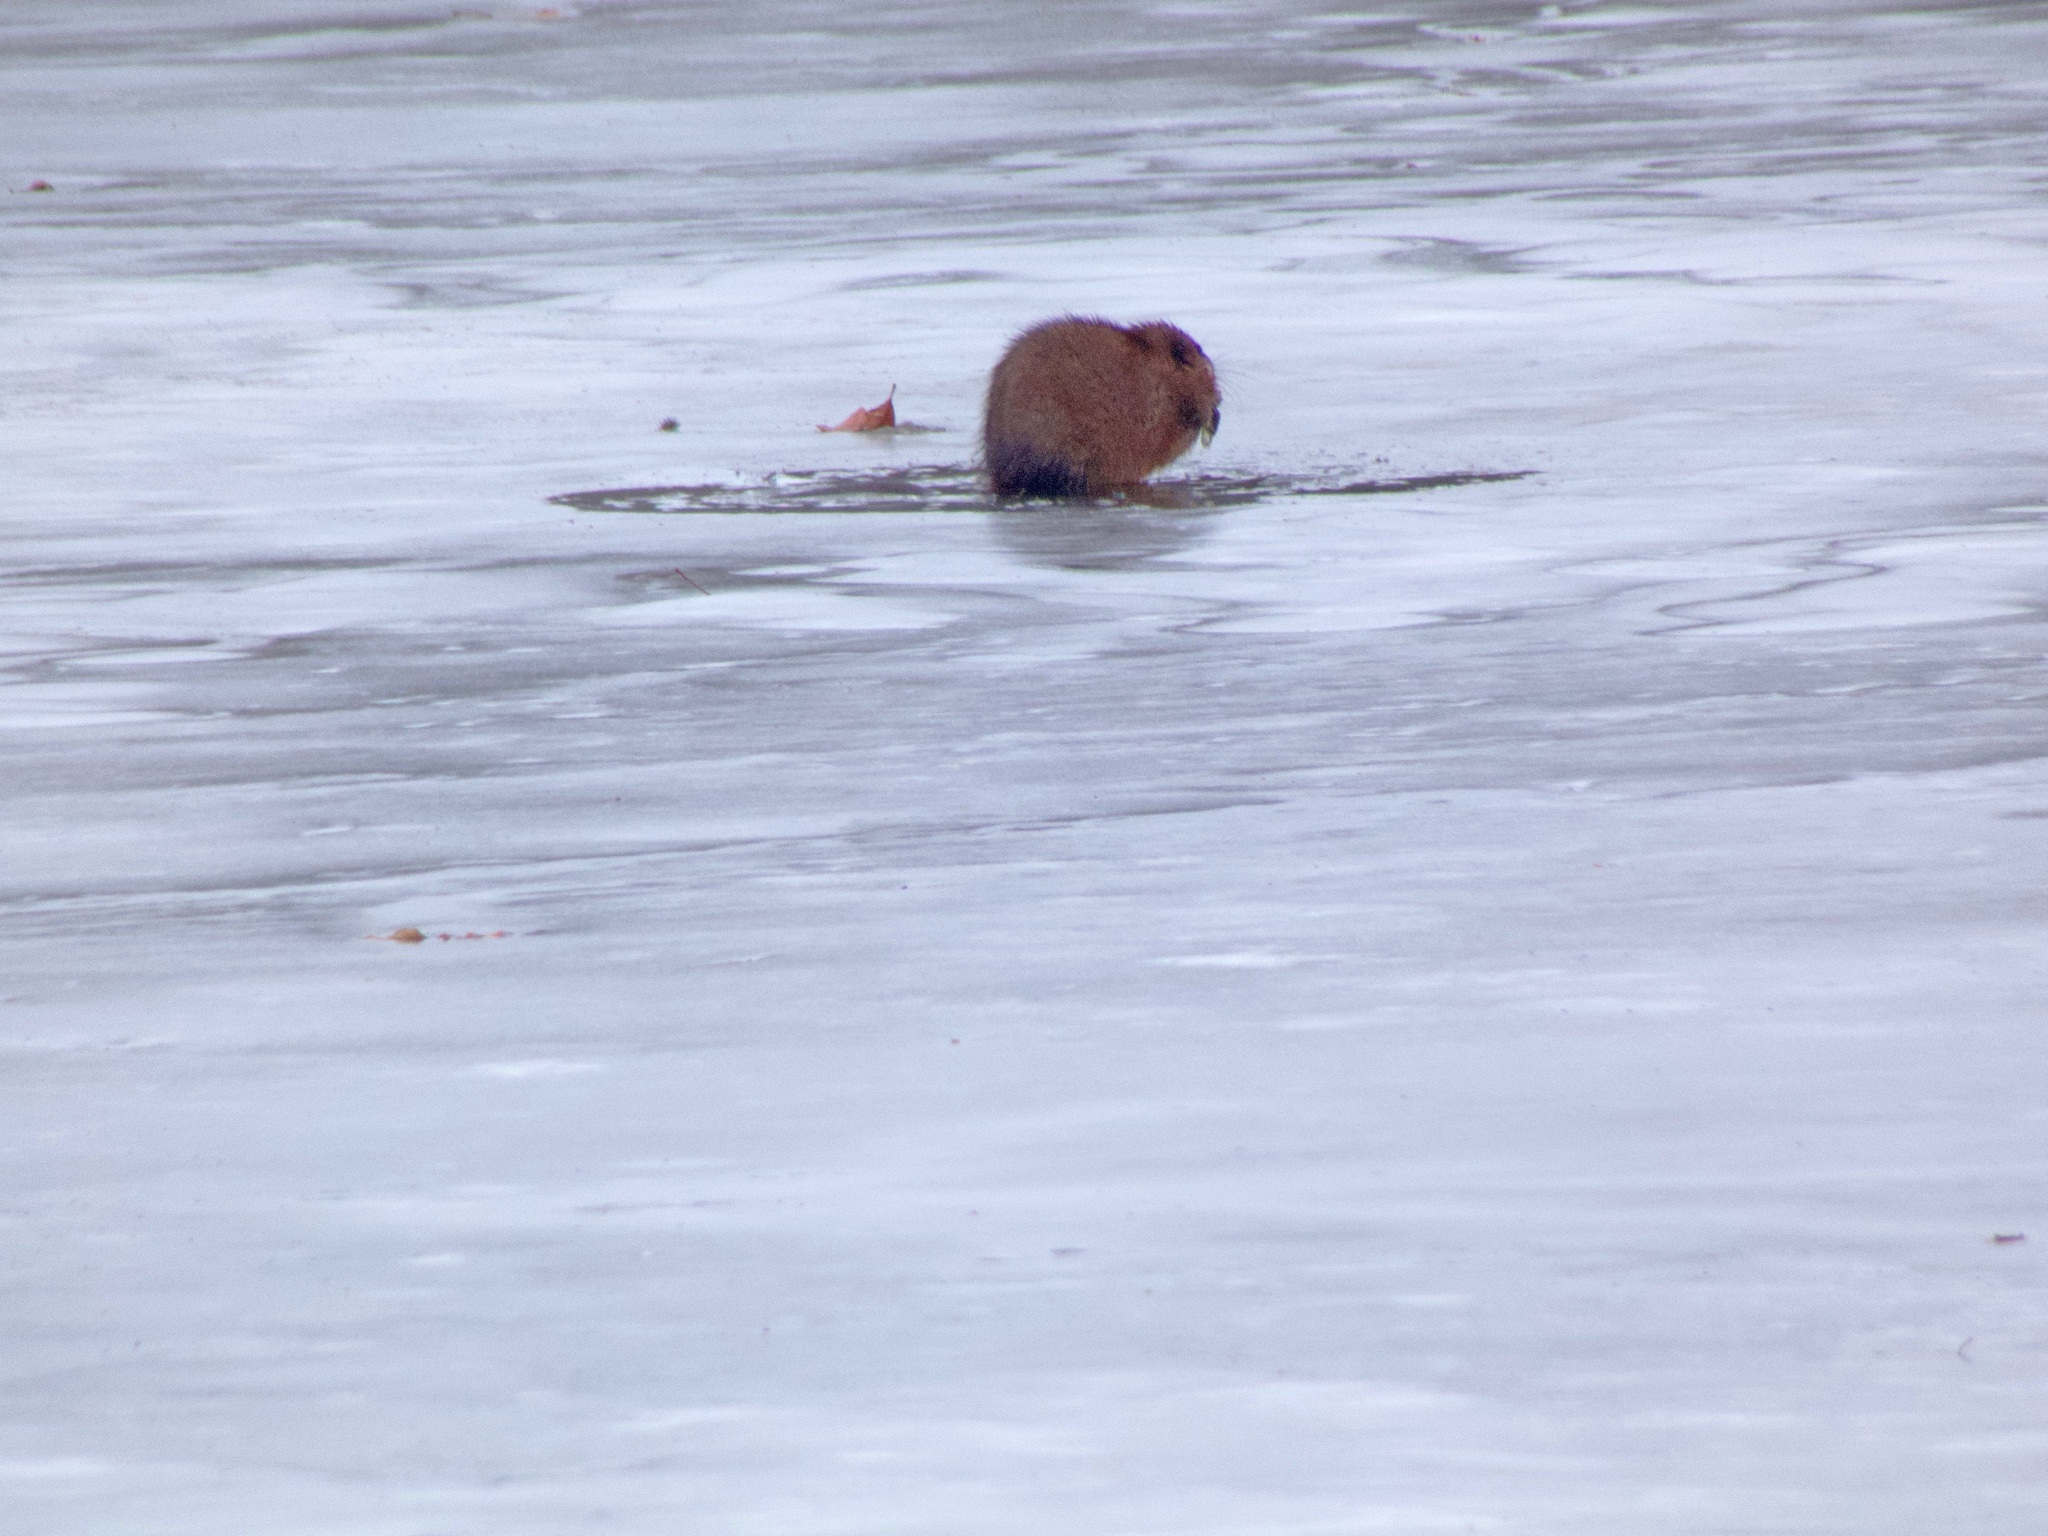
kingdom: Animalia
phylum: Chordata
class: Mammalia
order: Rodentia
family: Cricetidae
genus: Ondatra
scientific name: Ondatra zibethicus
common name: Muskrat
